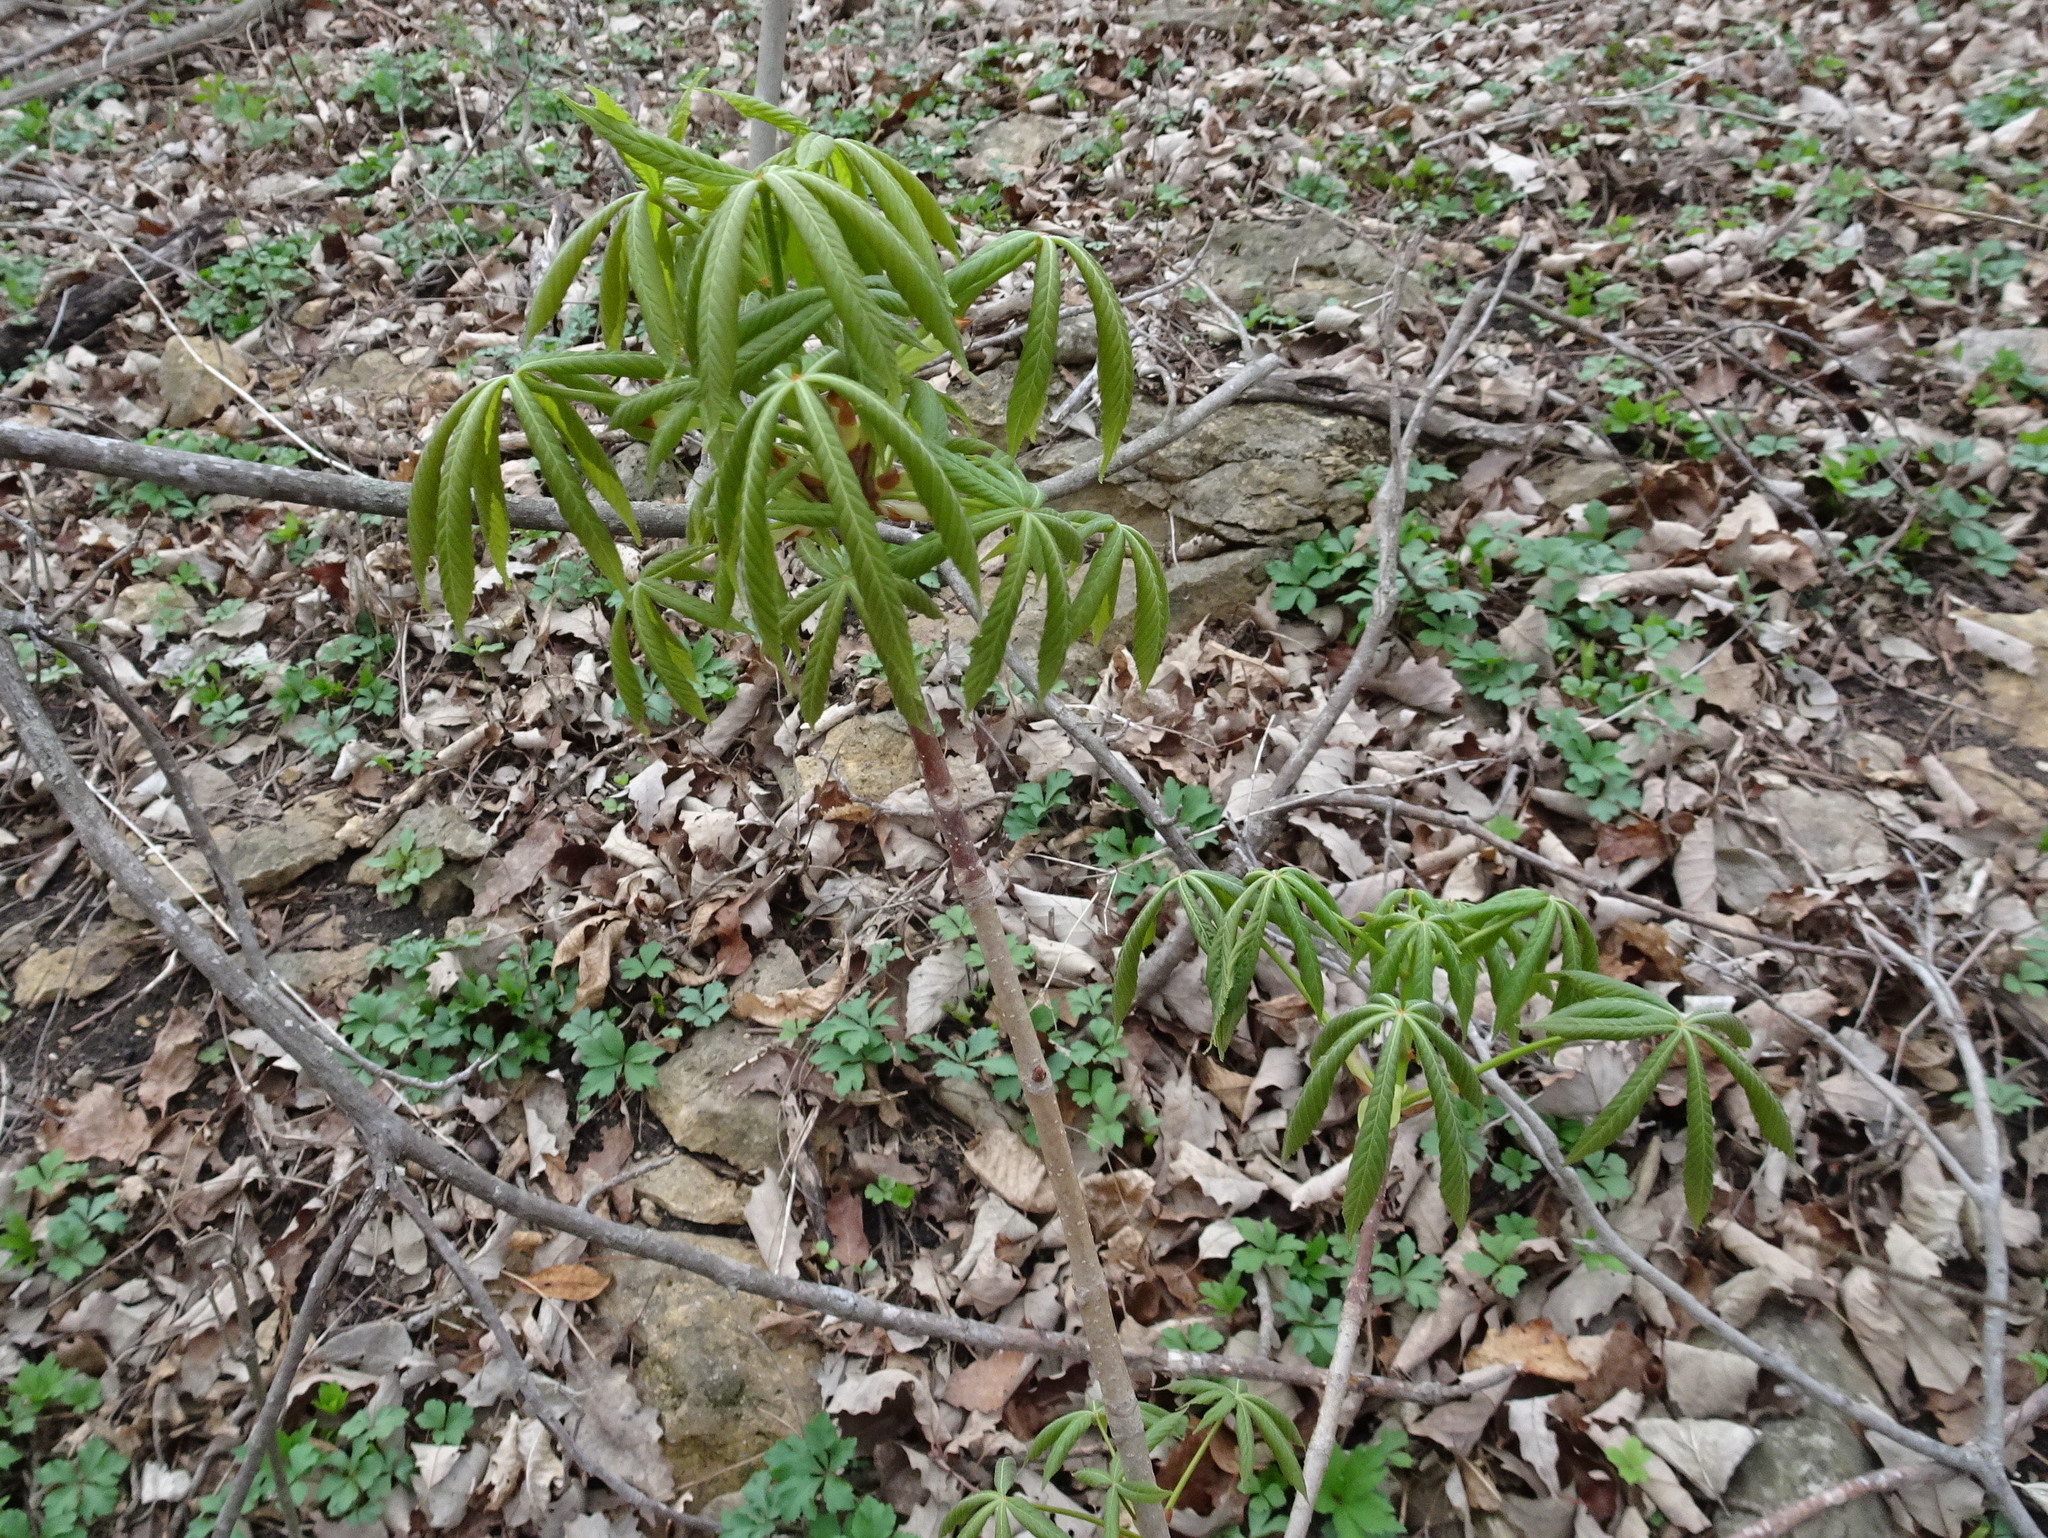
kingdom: Plantae
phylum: Tracheophyta
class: Magnoliopsida
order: Sapindales
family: Sapindaceae
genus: Aesculus
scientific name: Aesculus glabra
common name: Ohio buckeye
